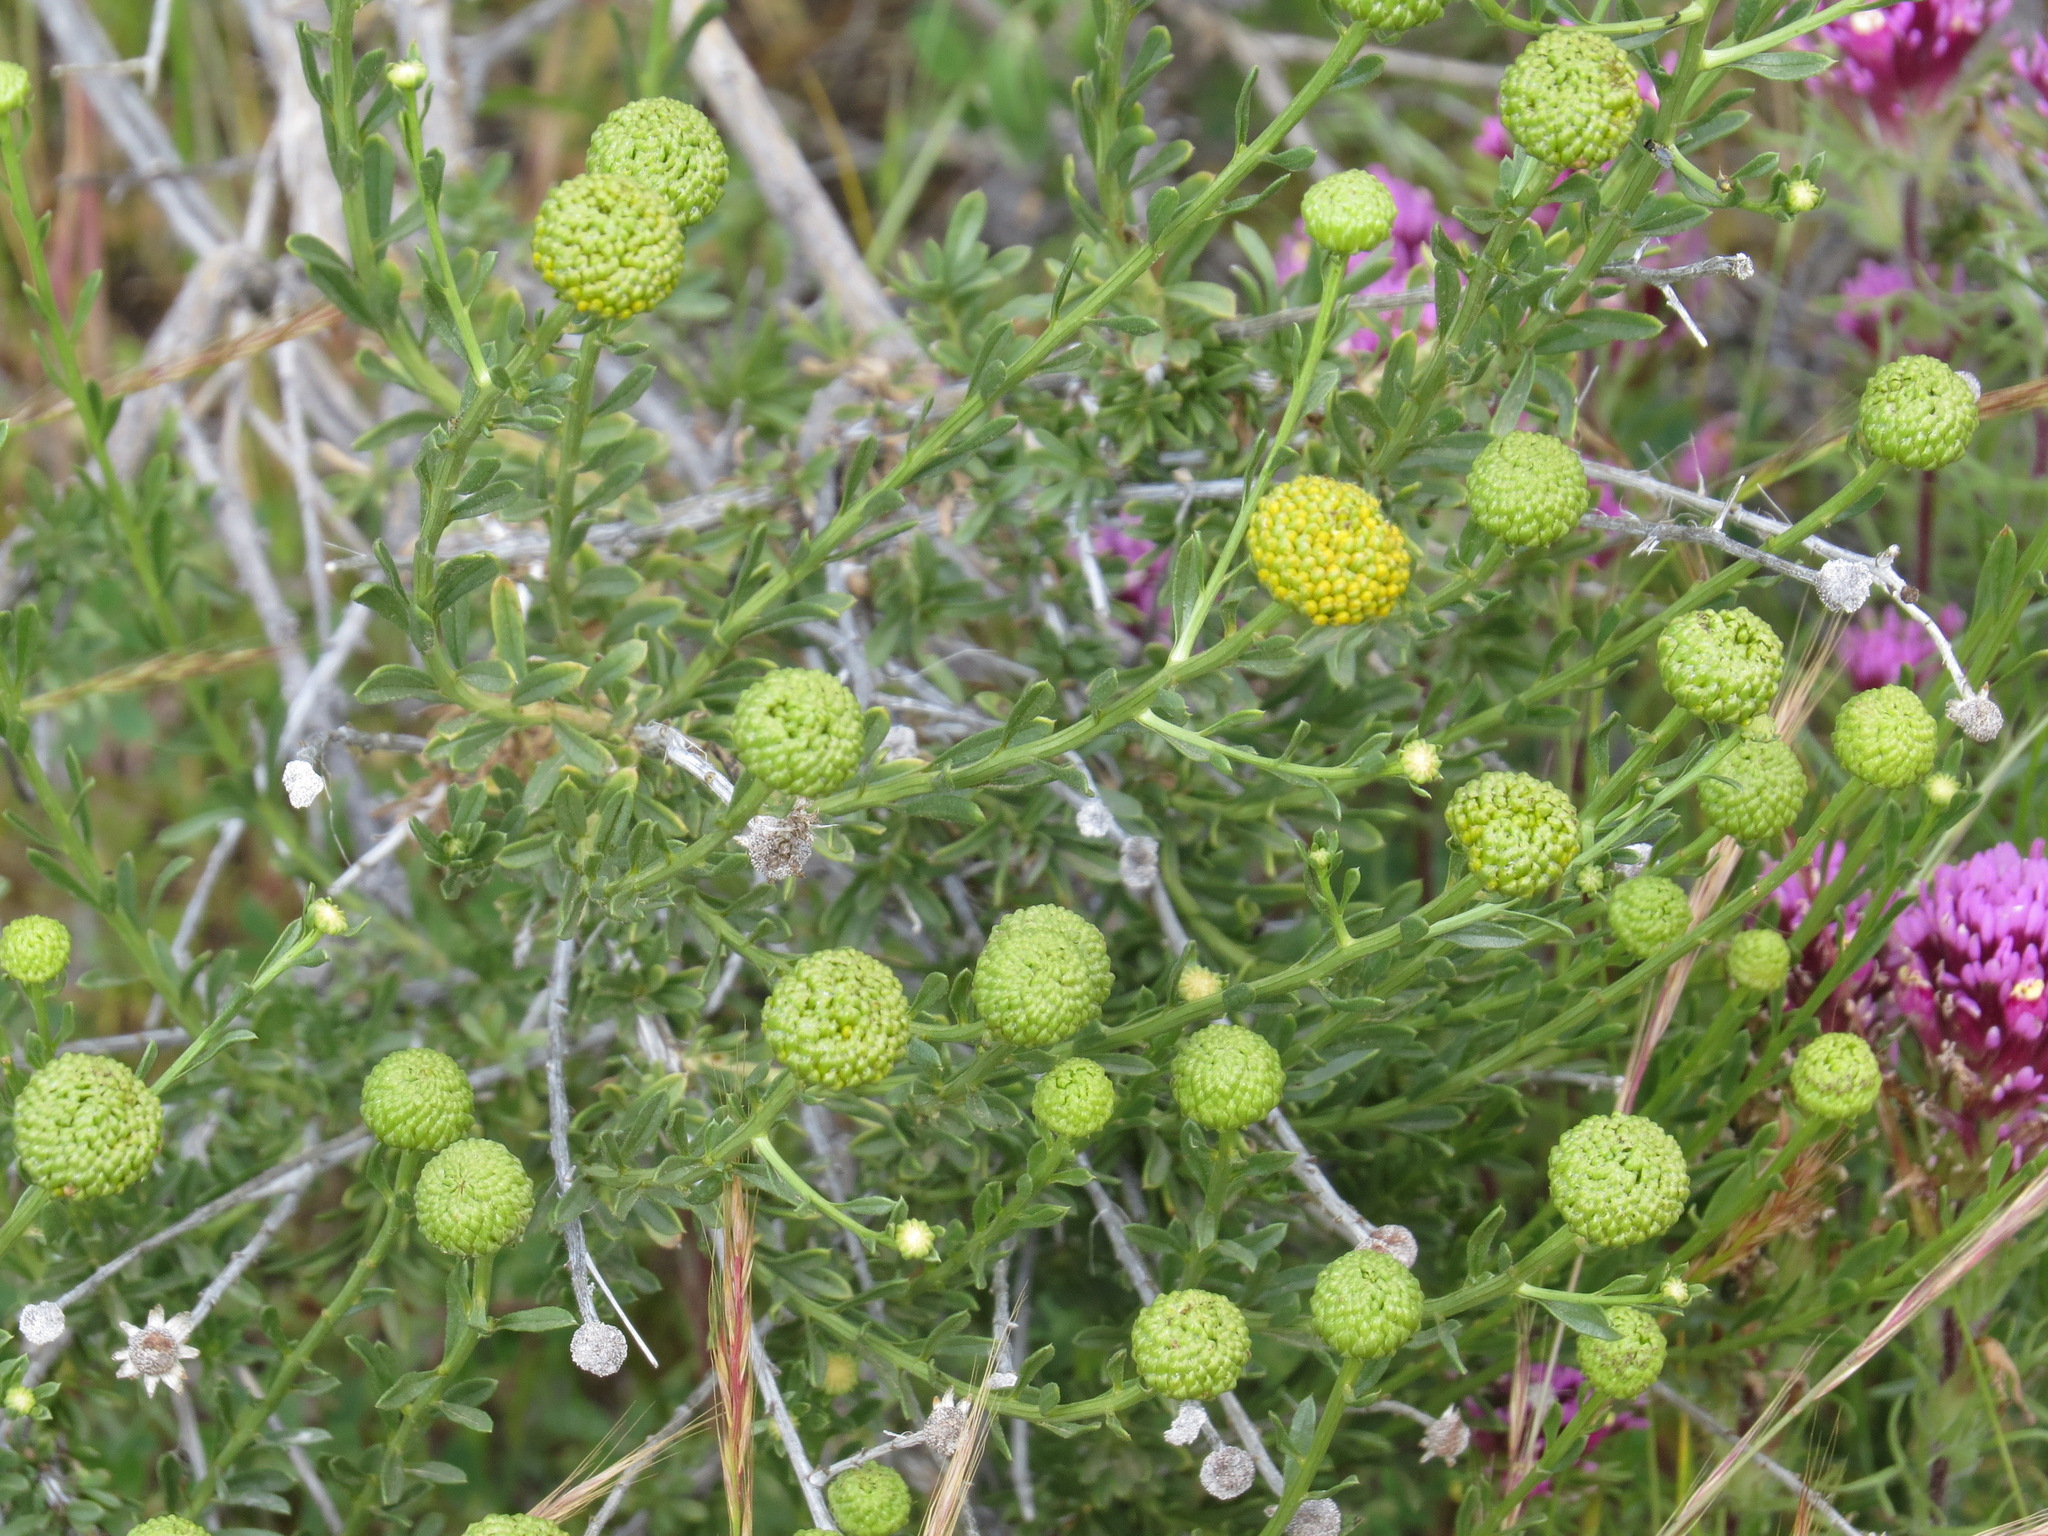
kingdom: Plantae
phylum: Tracheophyta
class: Magnoliopsida
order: Asterales
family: Asteraceae
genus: Eastwoodia
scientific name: Eastwoodia elegans
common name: Yellow-aster
